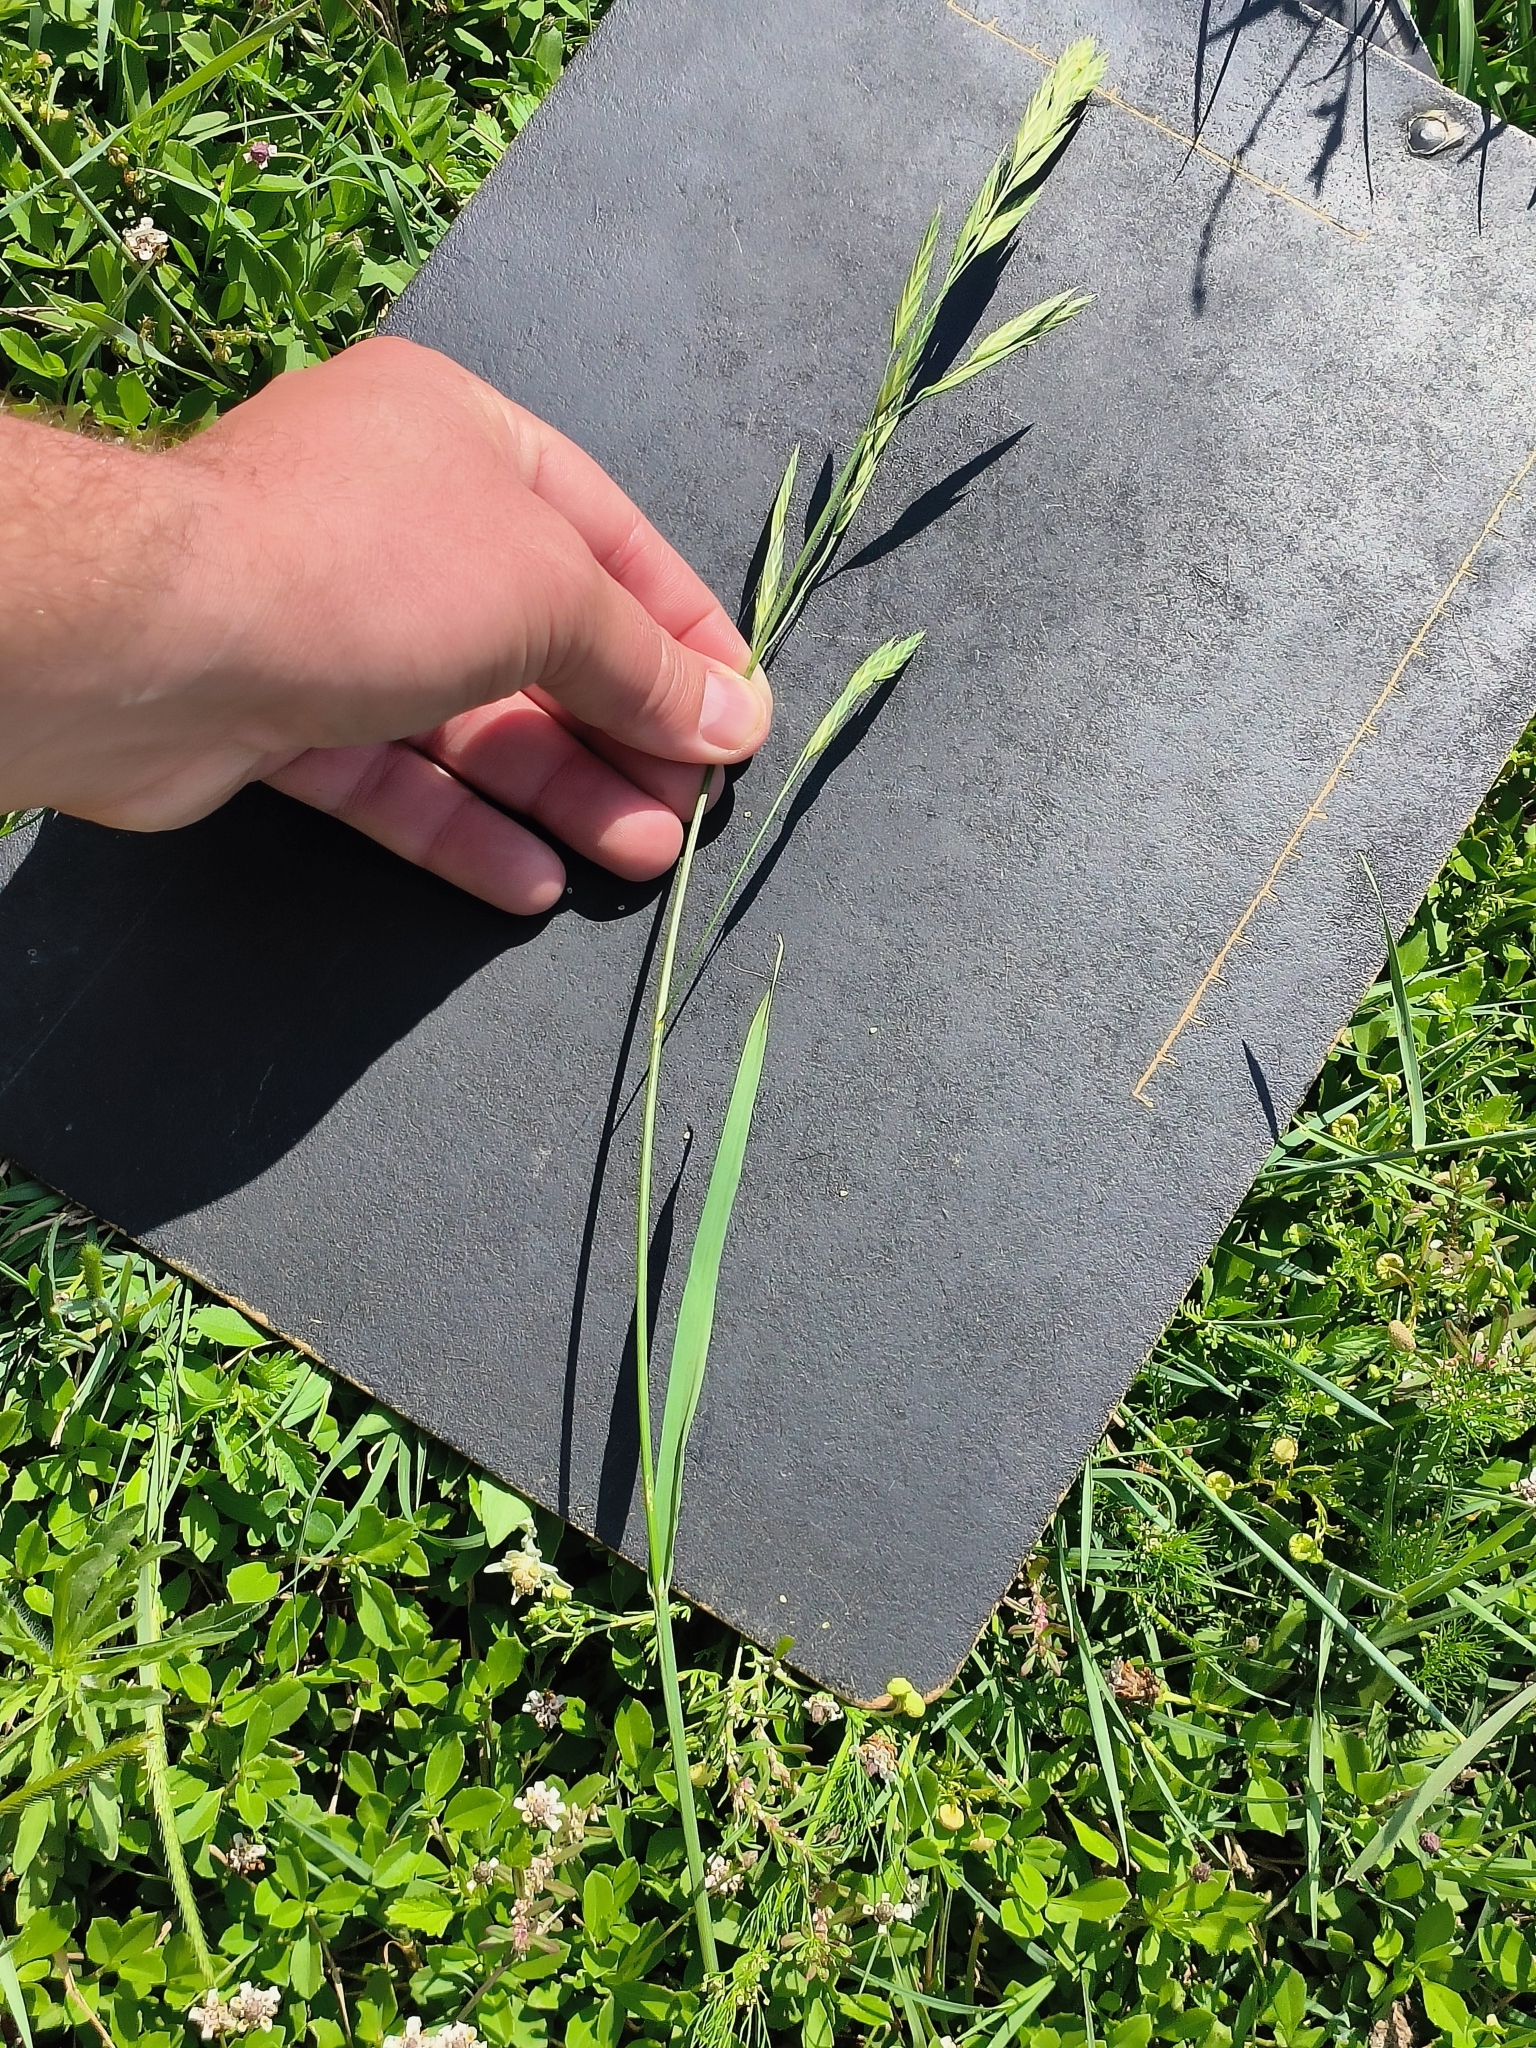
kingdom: Plantae
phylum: Tracheophyta
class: Liliopsida
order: Poales
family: Poaceae
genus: Bromus
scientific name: Bromus catharticus
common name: Rescuegrass
